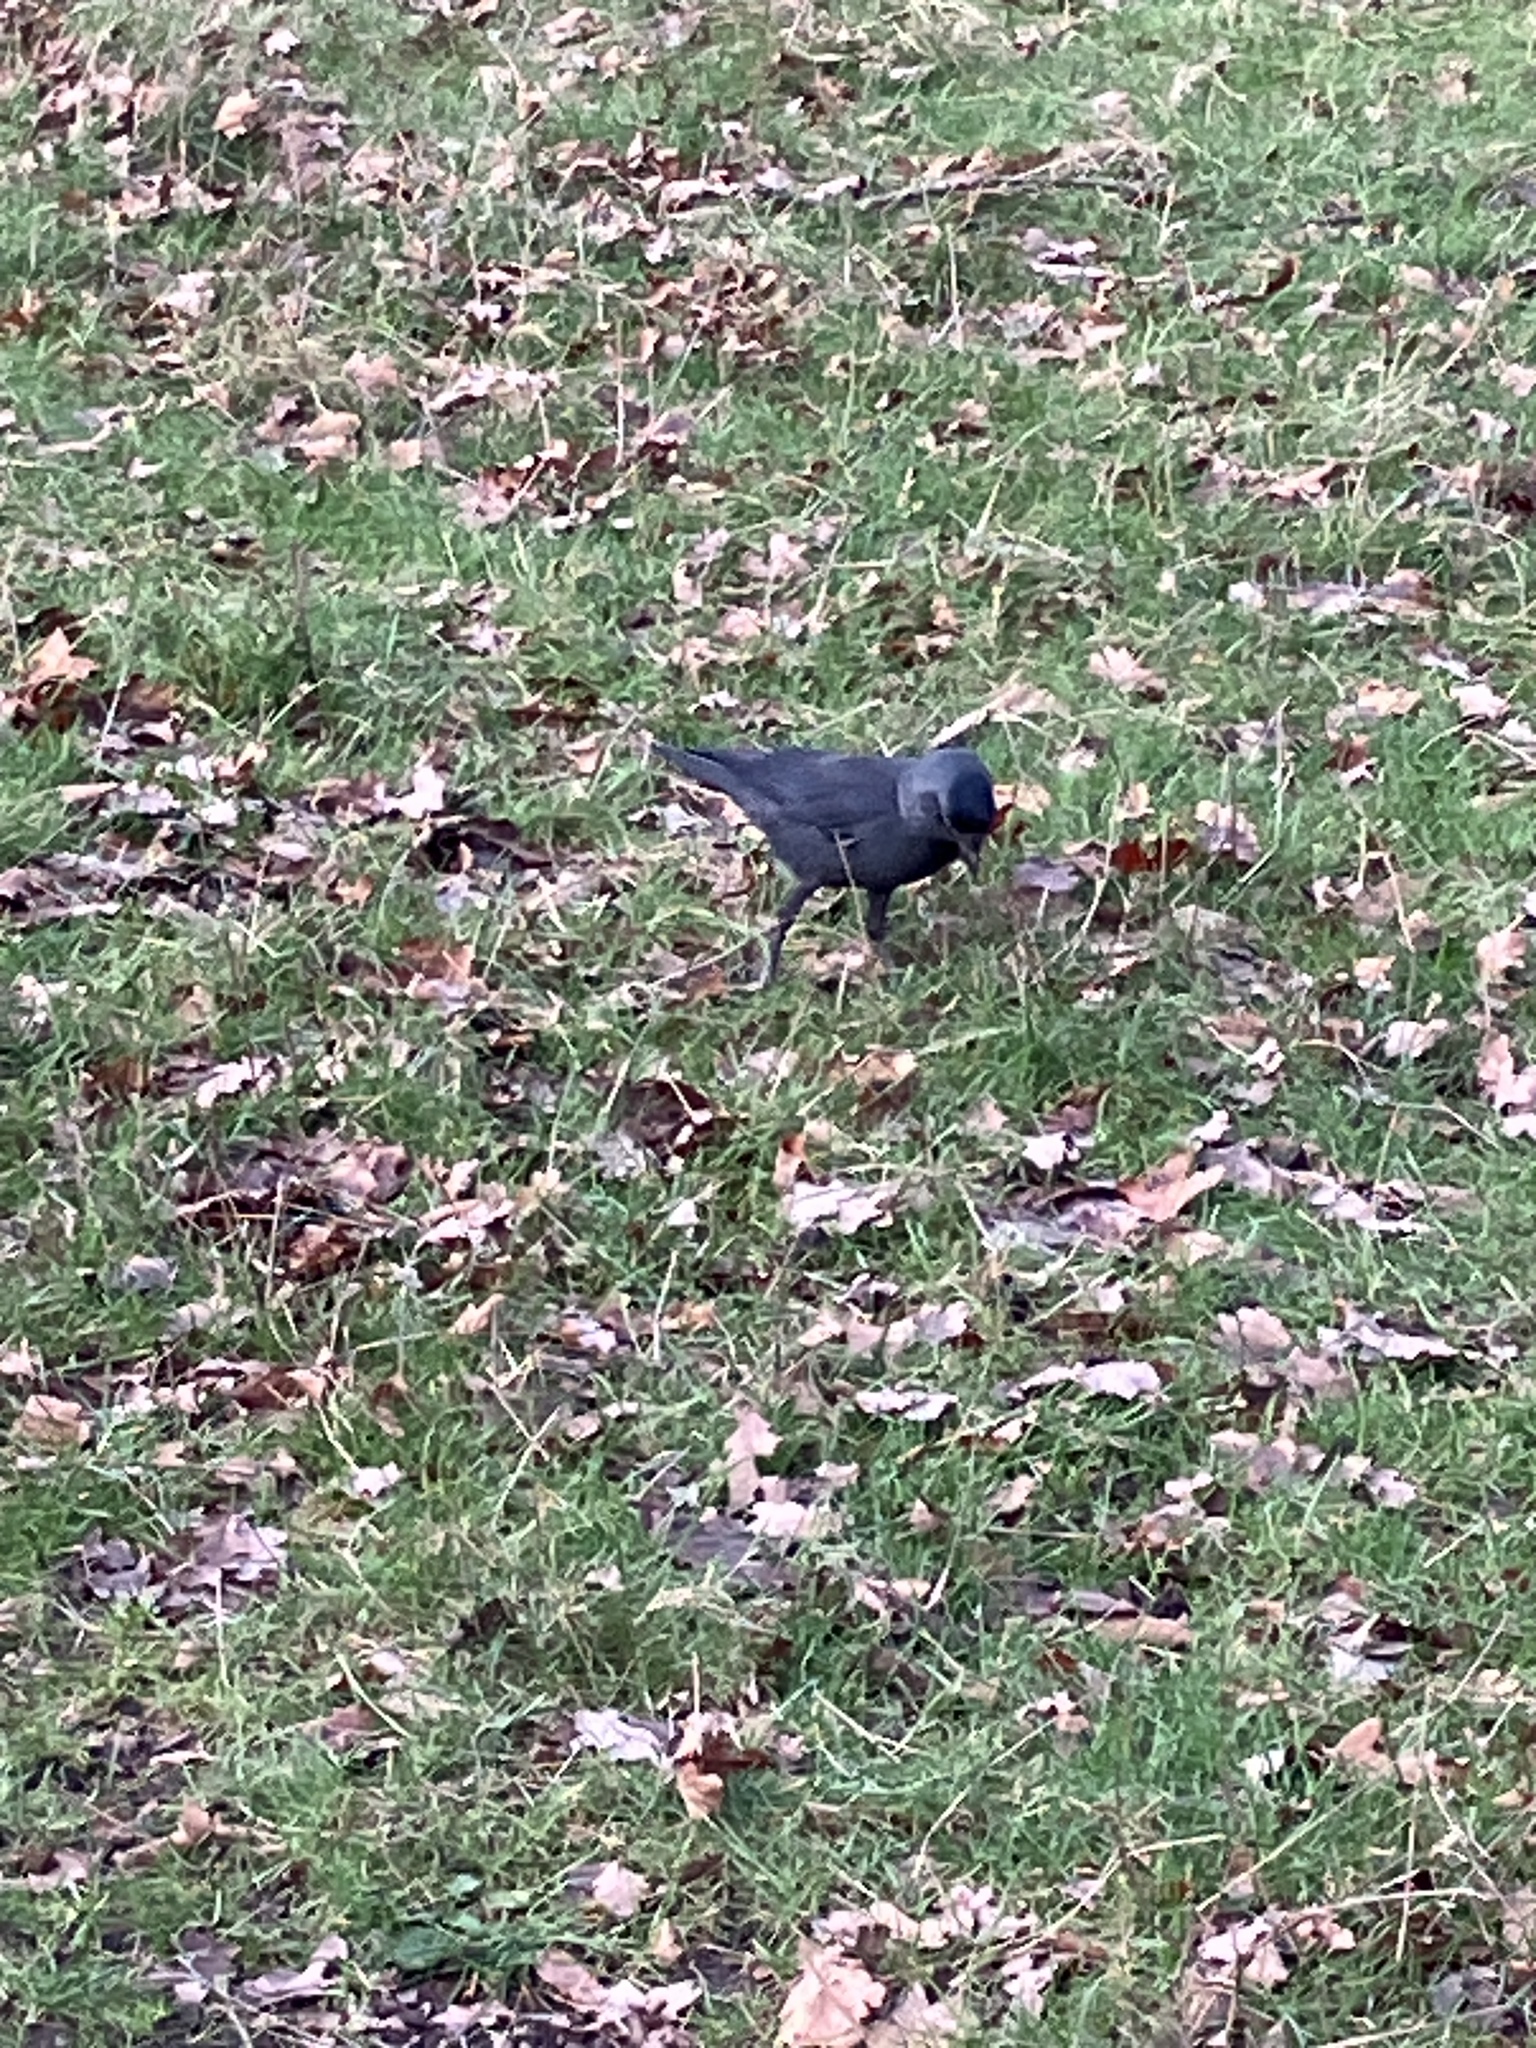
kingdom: Animalia
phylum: Chordata
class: Aves
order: Passeriformes
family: Corvidae
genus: Coloeus
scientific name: Coloeus monedula
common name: Western jackdaw
